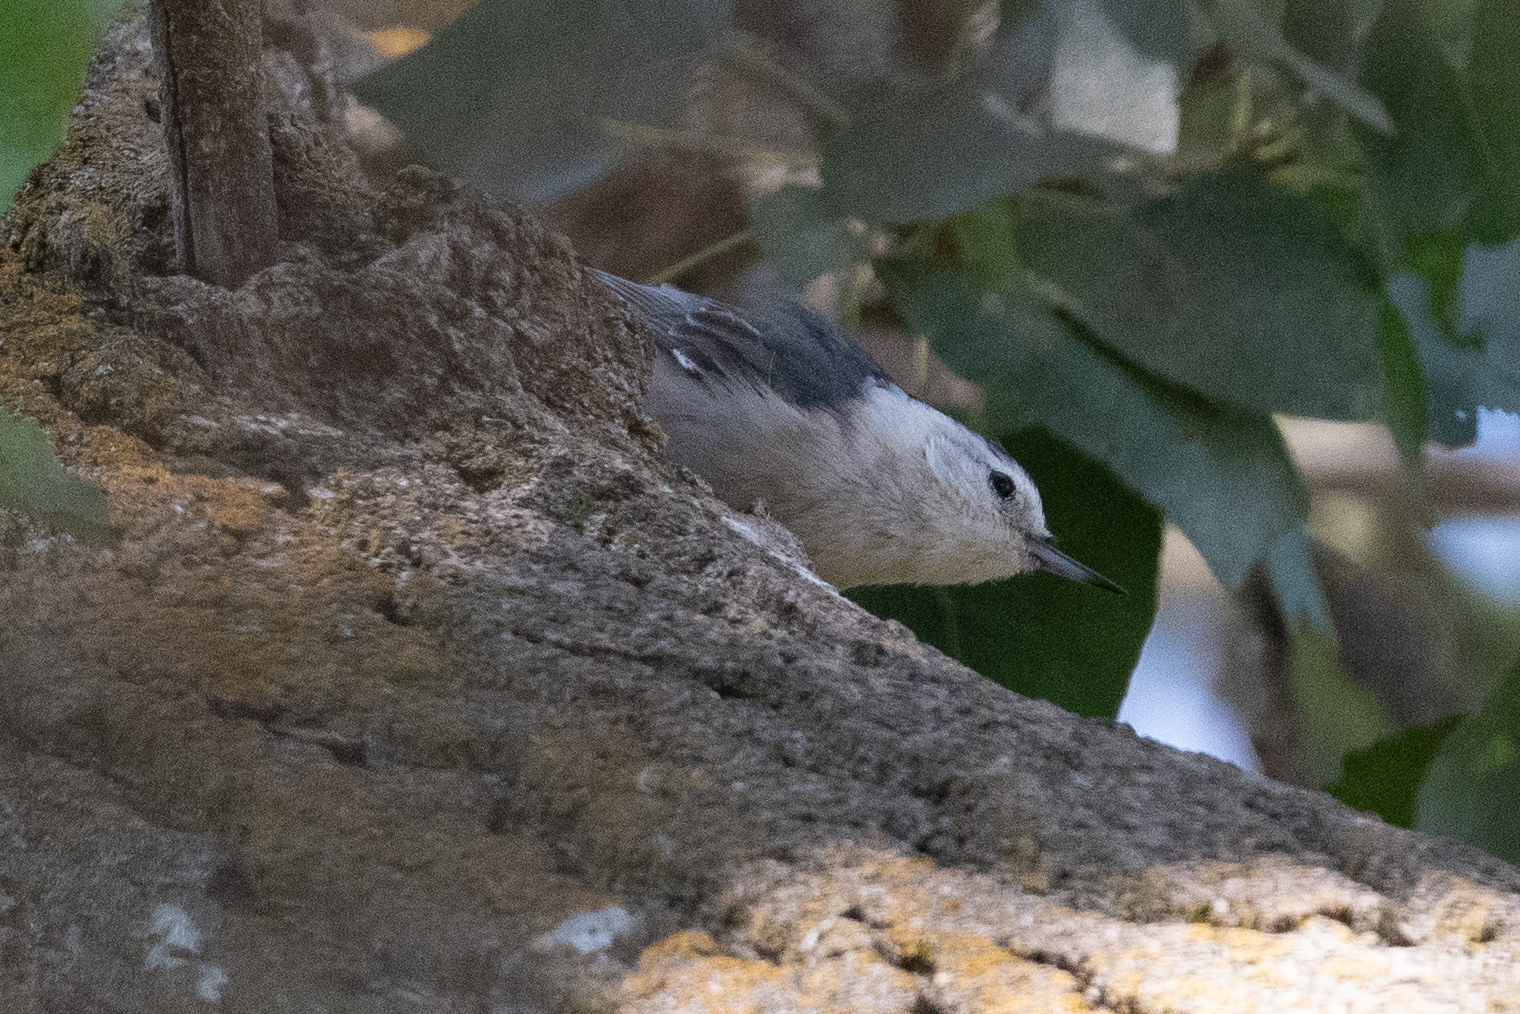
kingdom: Animalia
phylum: Chordata
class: Aves
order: Passeriformes
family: Sittidae
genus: Sitta
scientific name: Sitta carolinensis
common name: White-breasted nuthatch
